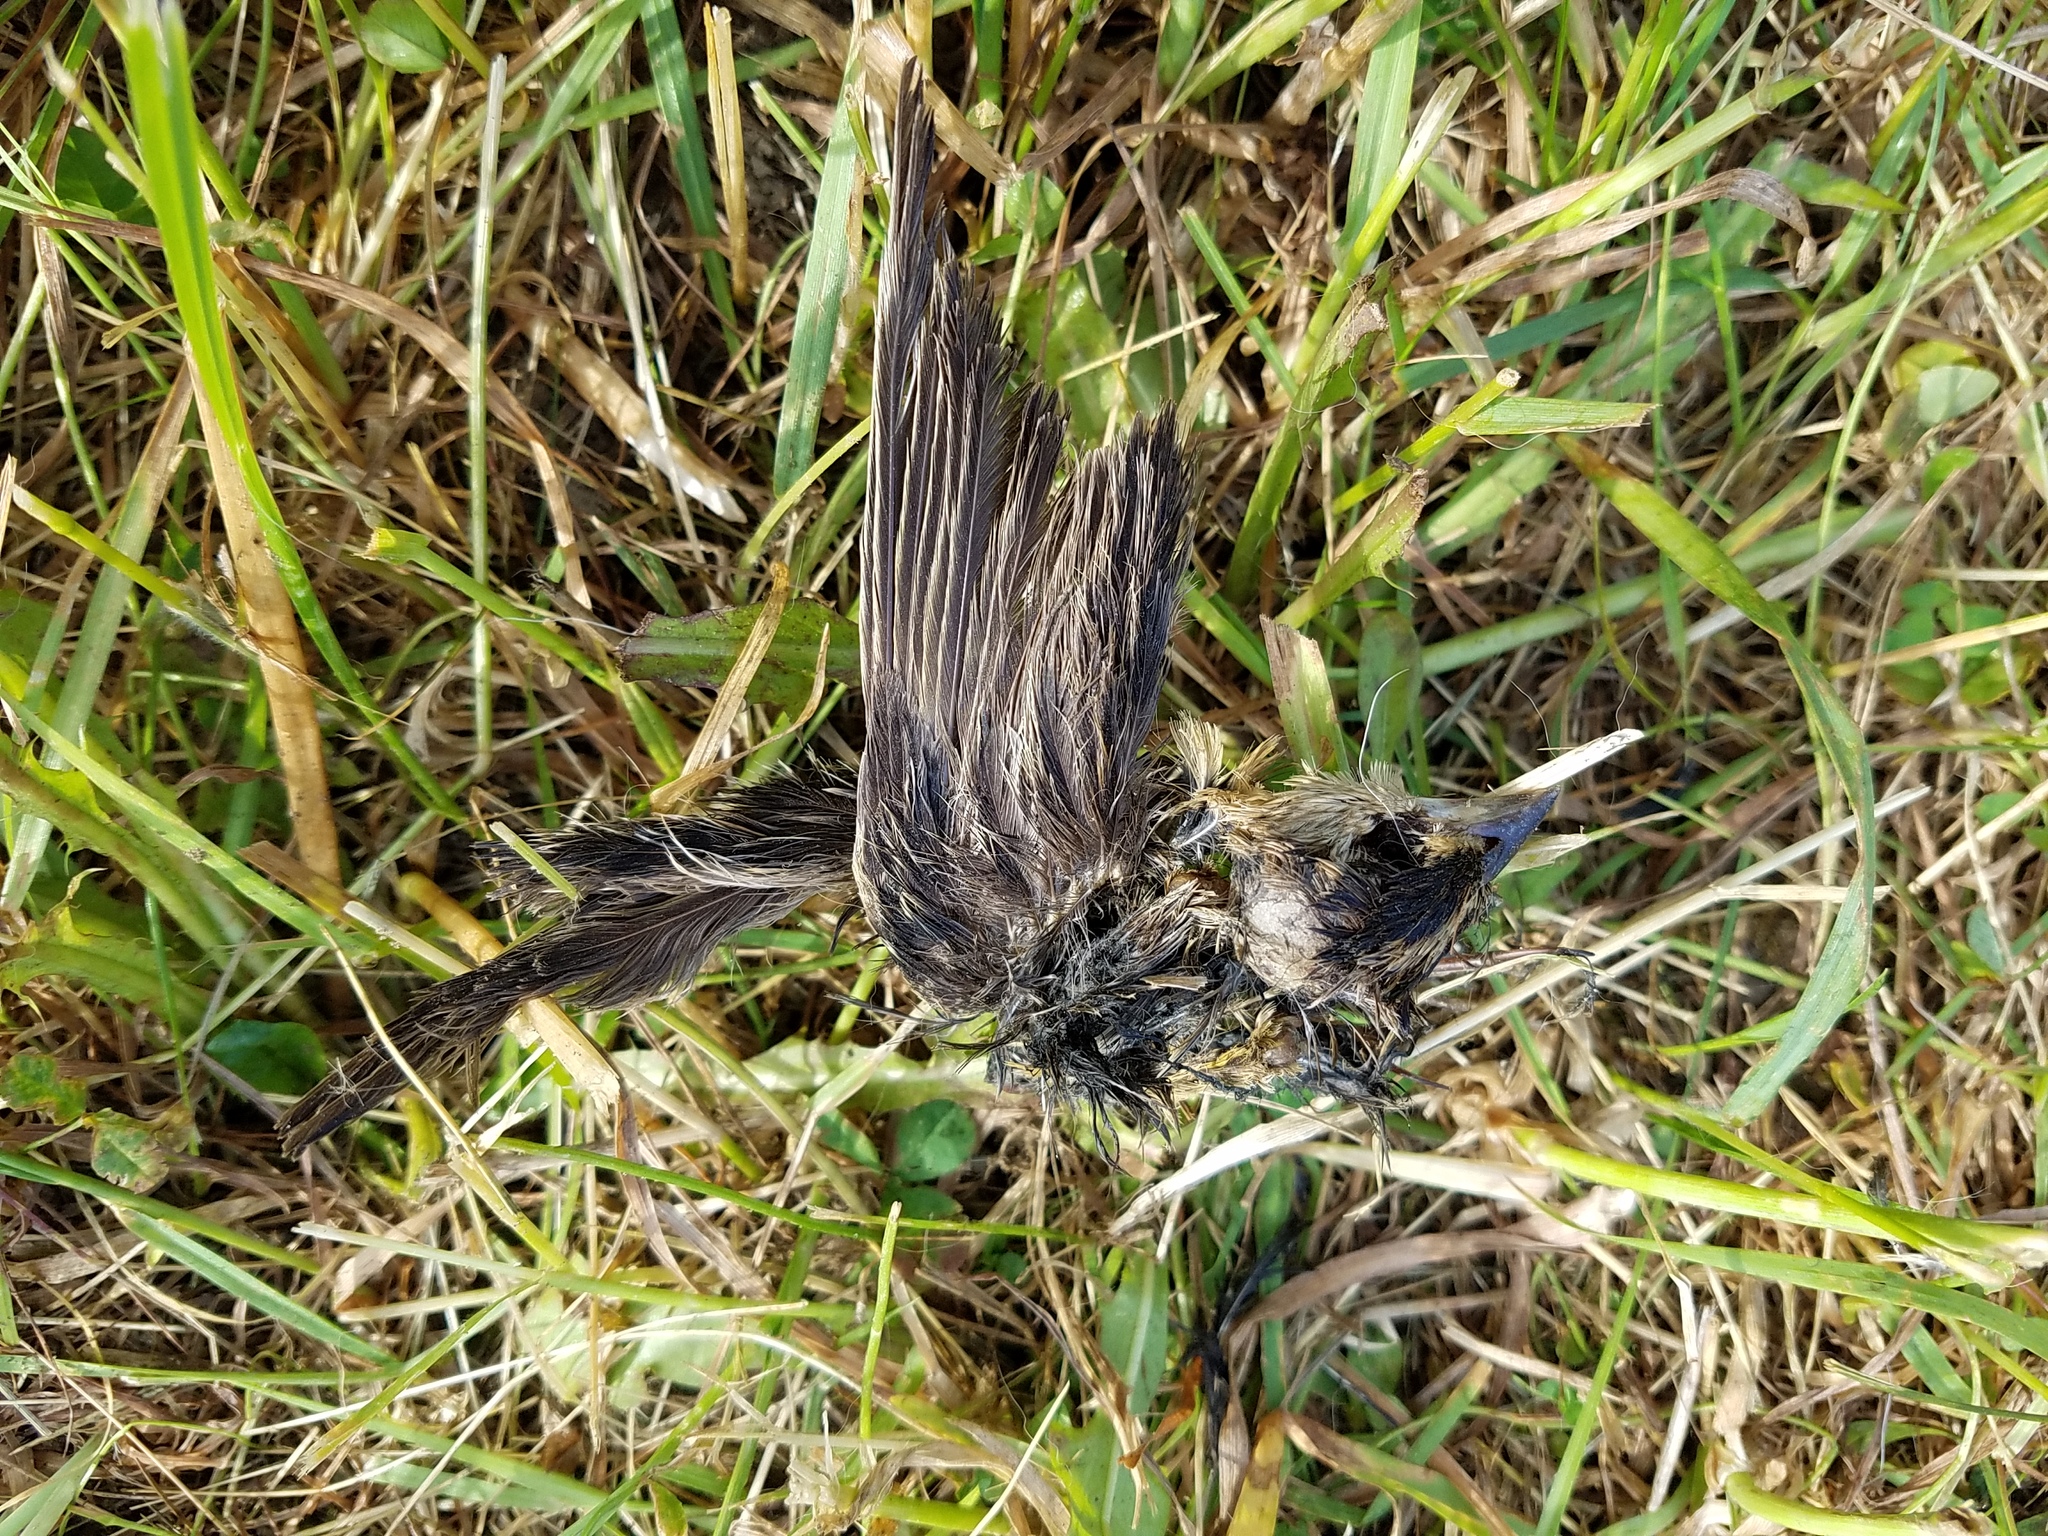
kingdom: Animalia
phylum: Chordata
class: Aves
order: Passeriformes
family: Icteridae
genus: Dolichonyx
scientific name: Dolichonyx oryzivorus
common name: Bobolink
